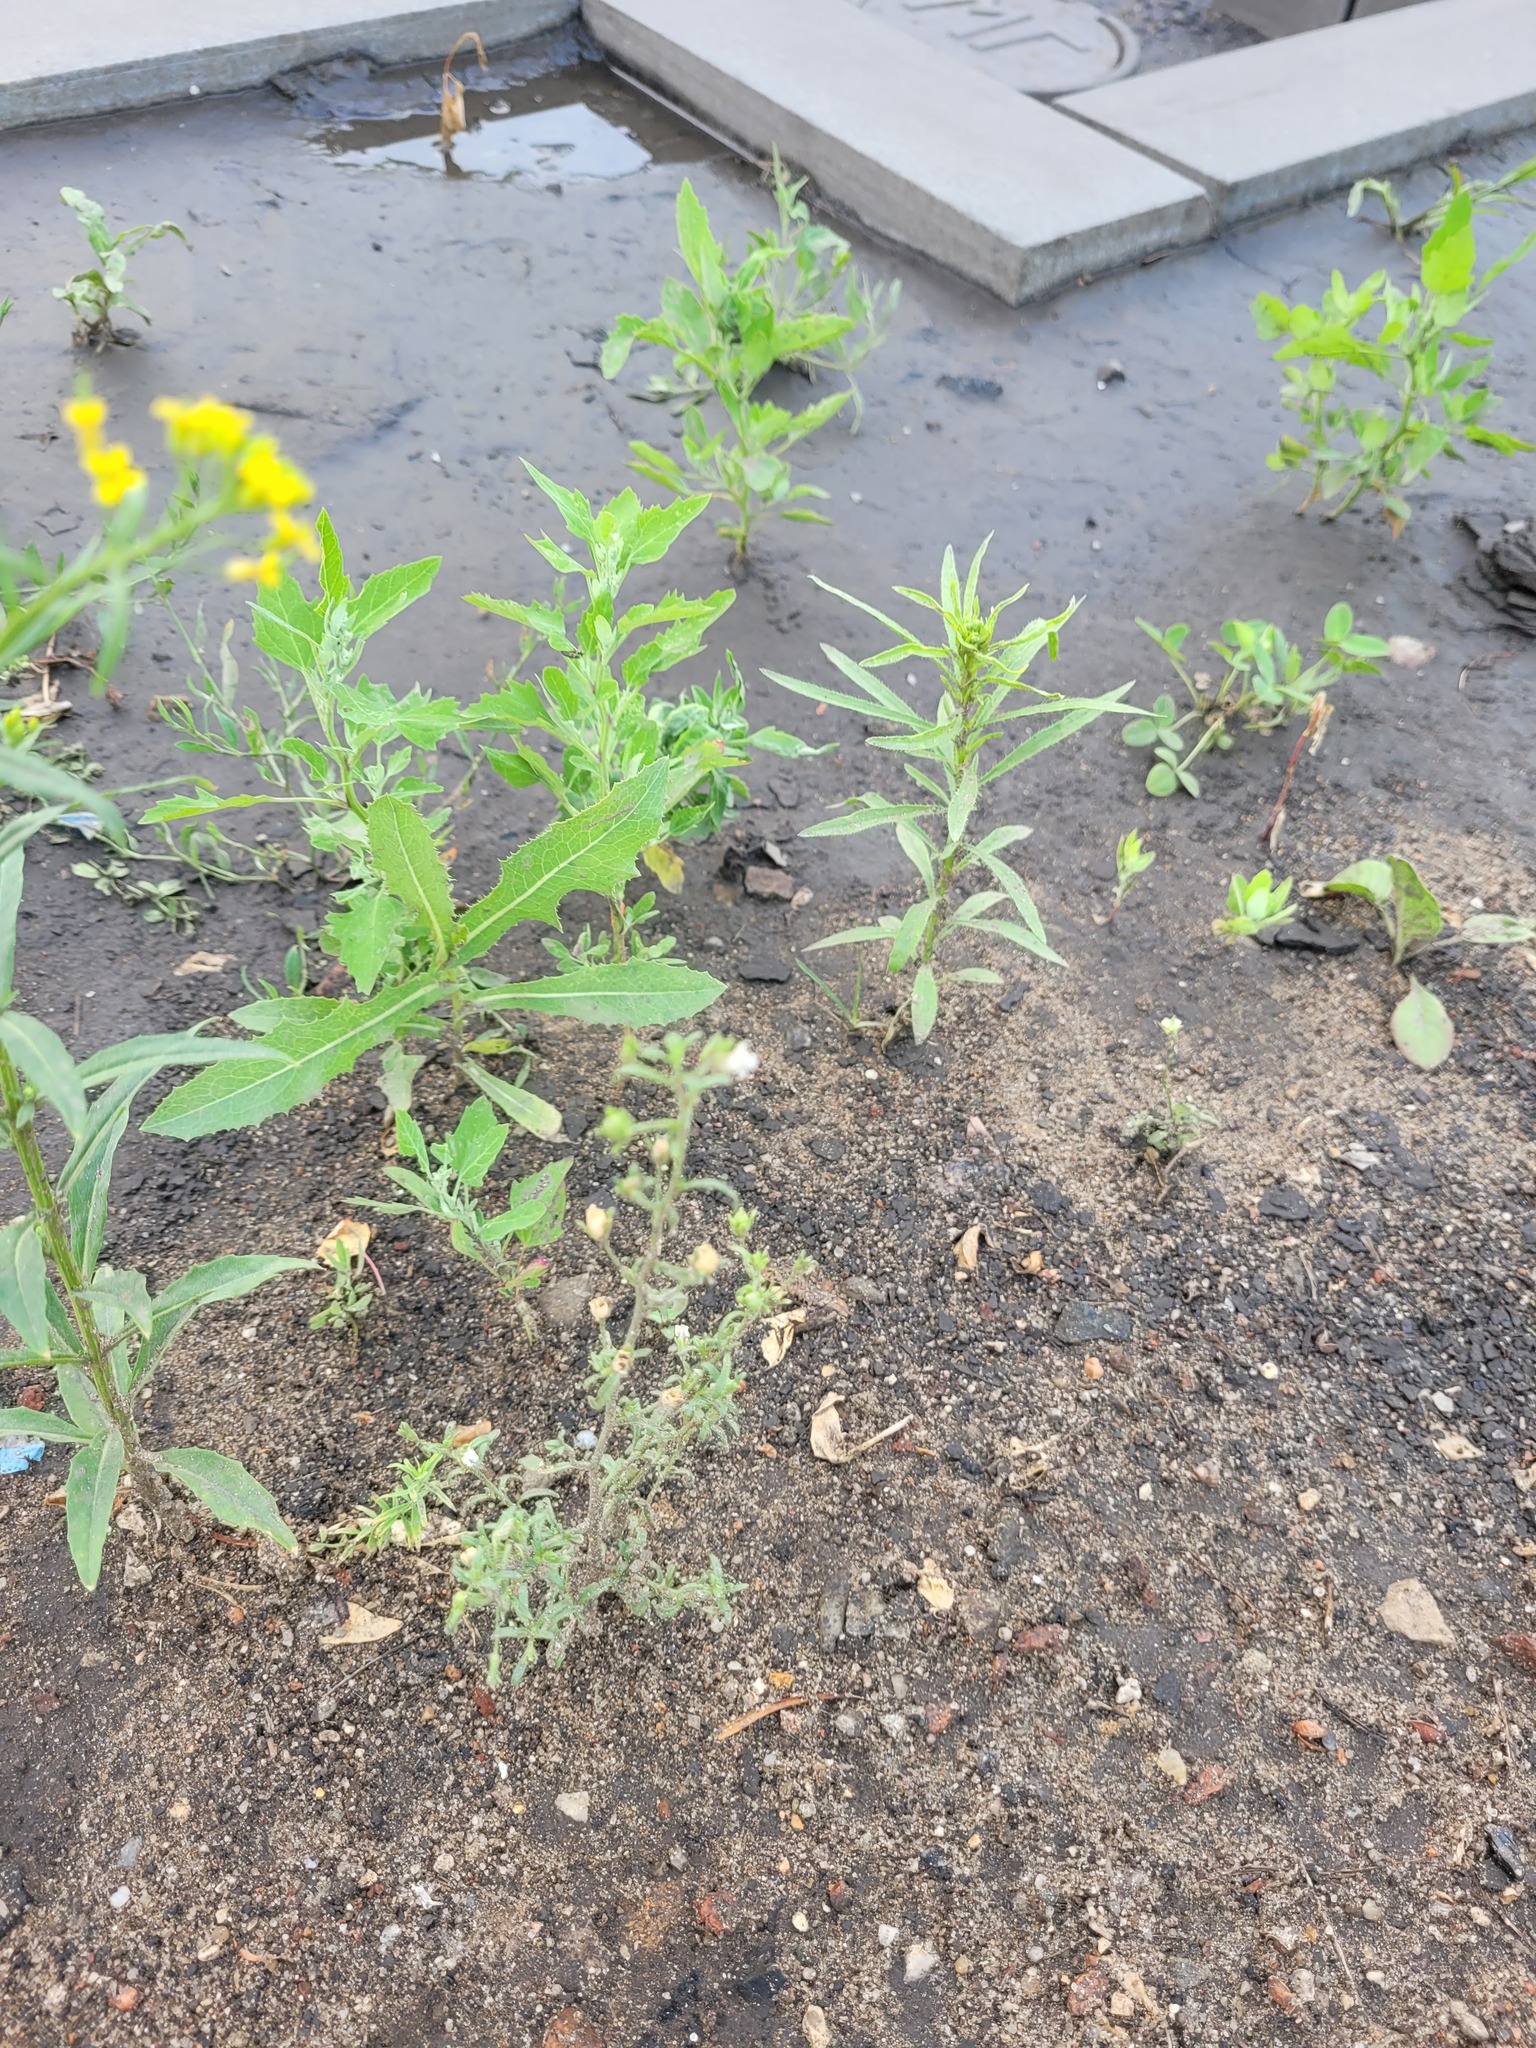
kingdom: Plantae
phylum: Tracheophyta
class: Magnoliopsida
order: Lamiales
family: Plantaginaceae
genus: Chaenorhinum
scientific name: Chaenorhinum minus
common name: Dwarf snapdragon
